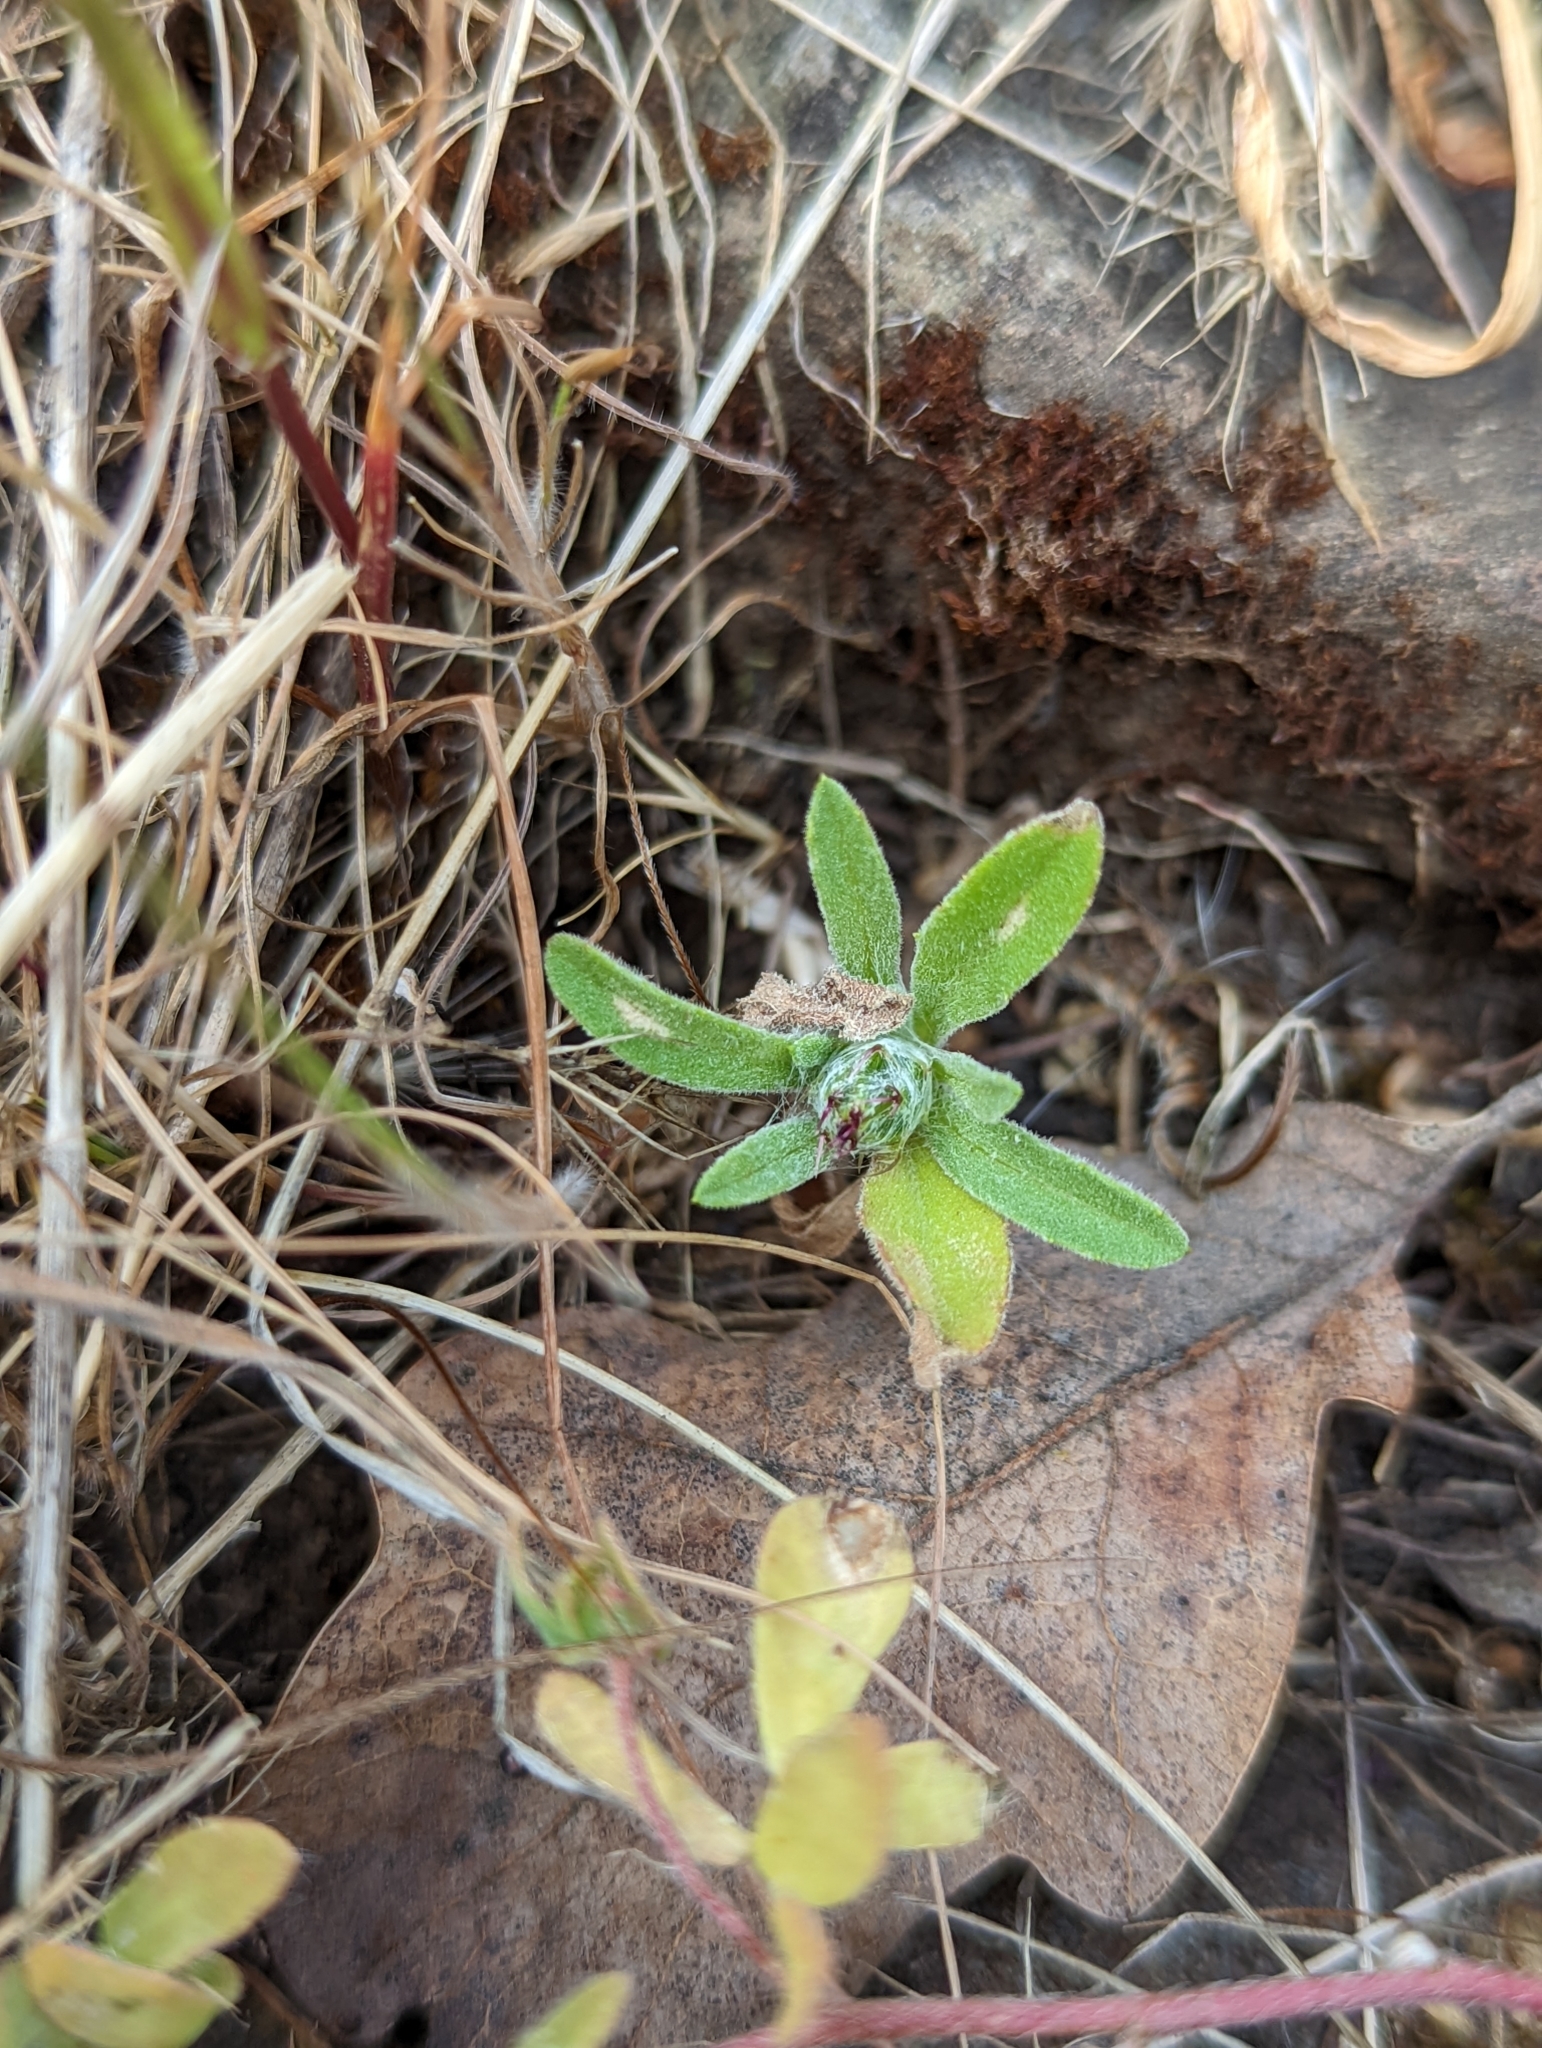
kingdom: Plantae
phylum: Tracheophyta
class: Magnoliopsida
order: Asterales
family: Asteraceae
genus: Centaurea
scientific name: Centaurea melitensis
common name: Maltese star-thistle
